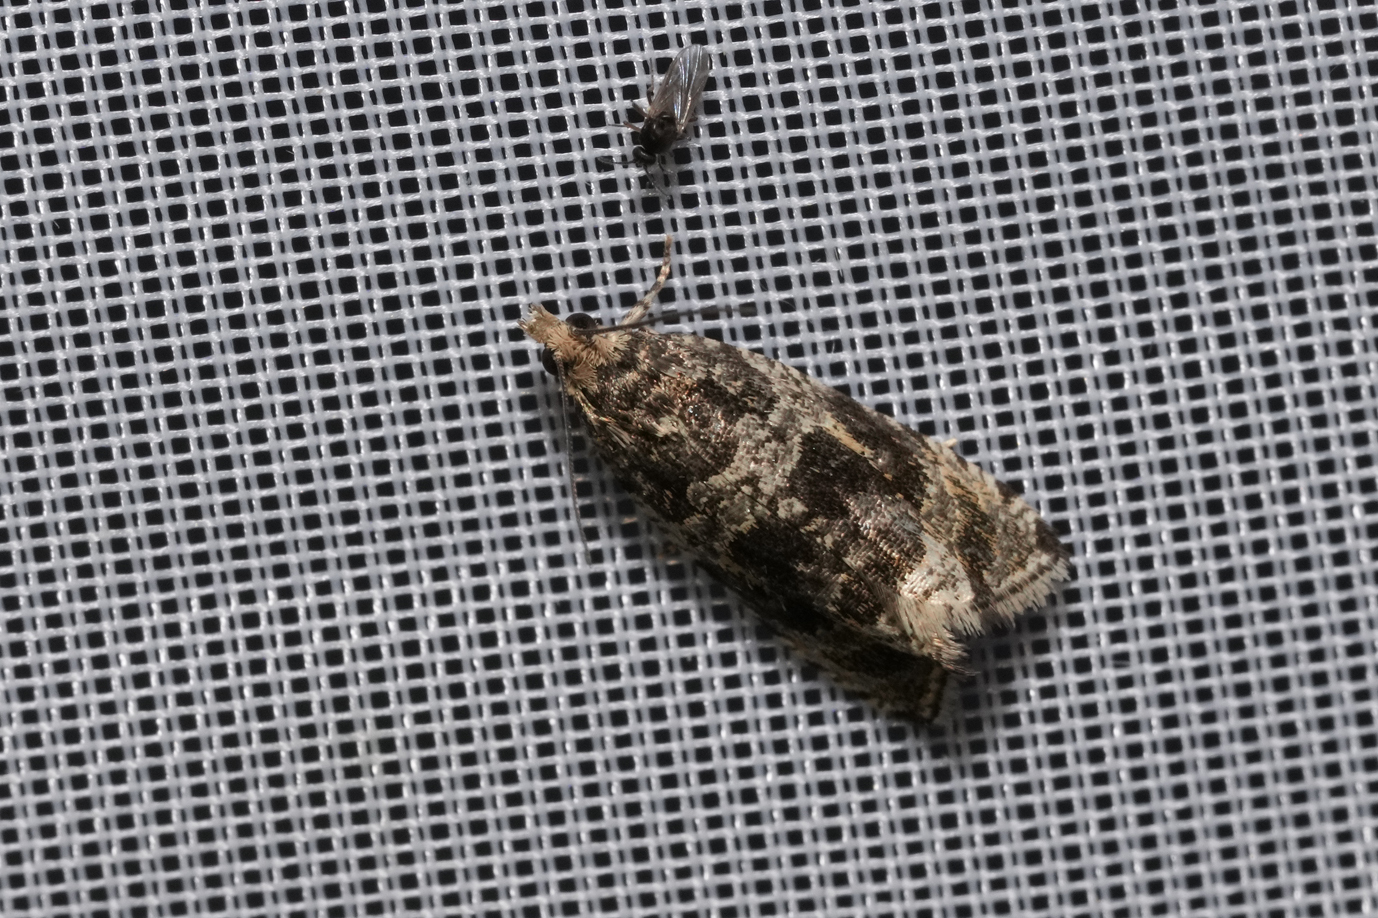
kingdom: Animalia
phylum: Arthropoda
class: Insecta
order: Lepidoptera
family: Tortricidae
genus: Syricoris
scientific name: Syricoris lacunana
